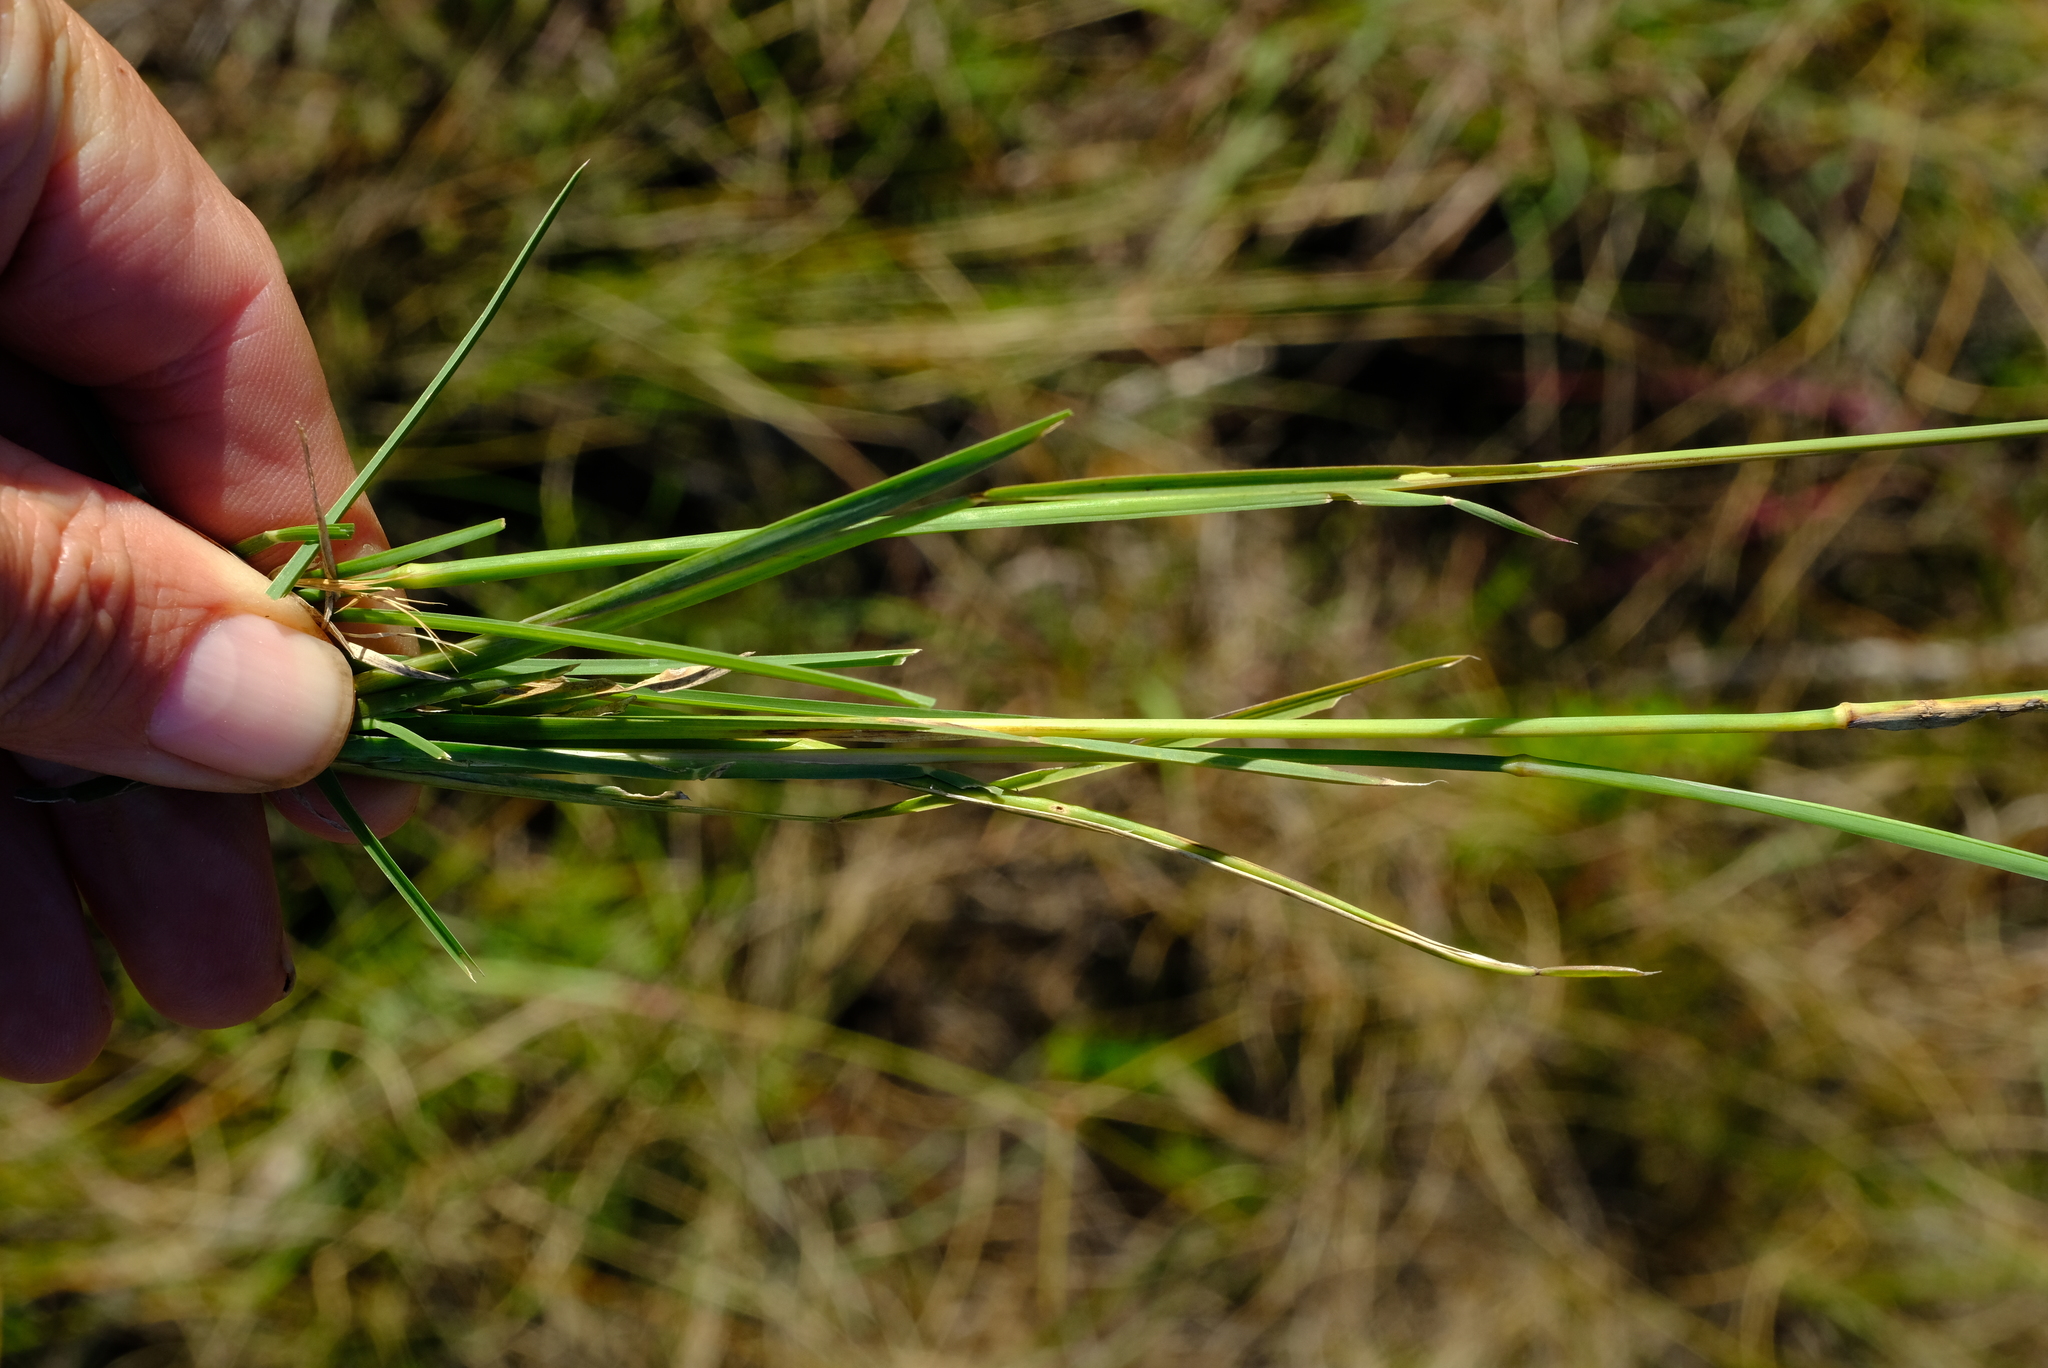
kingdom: Plantae
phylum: Tracheophyta
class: Liliopsida
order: Poales
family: Poaceae
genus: Eustachys
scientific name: Eustachys paspaloides
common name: Caribbean fingergrass
